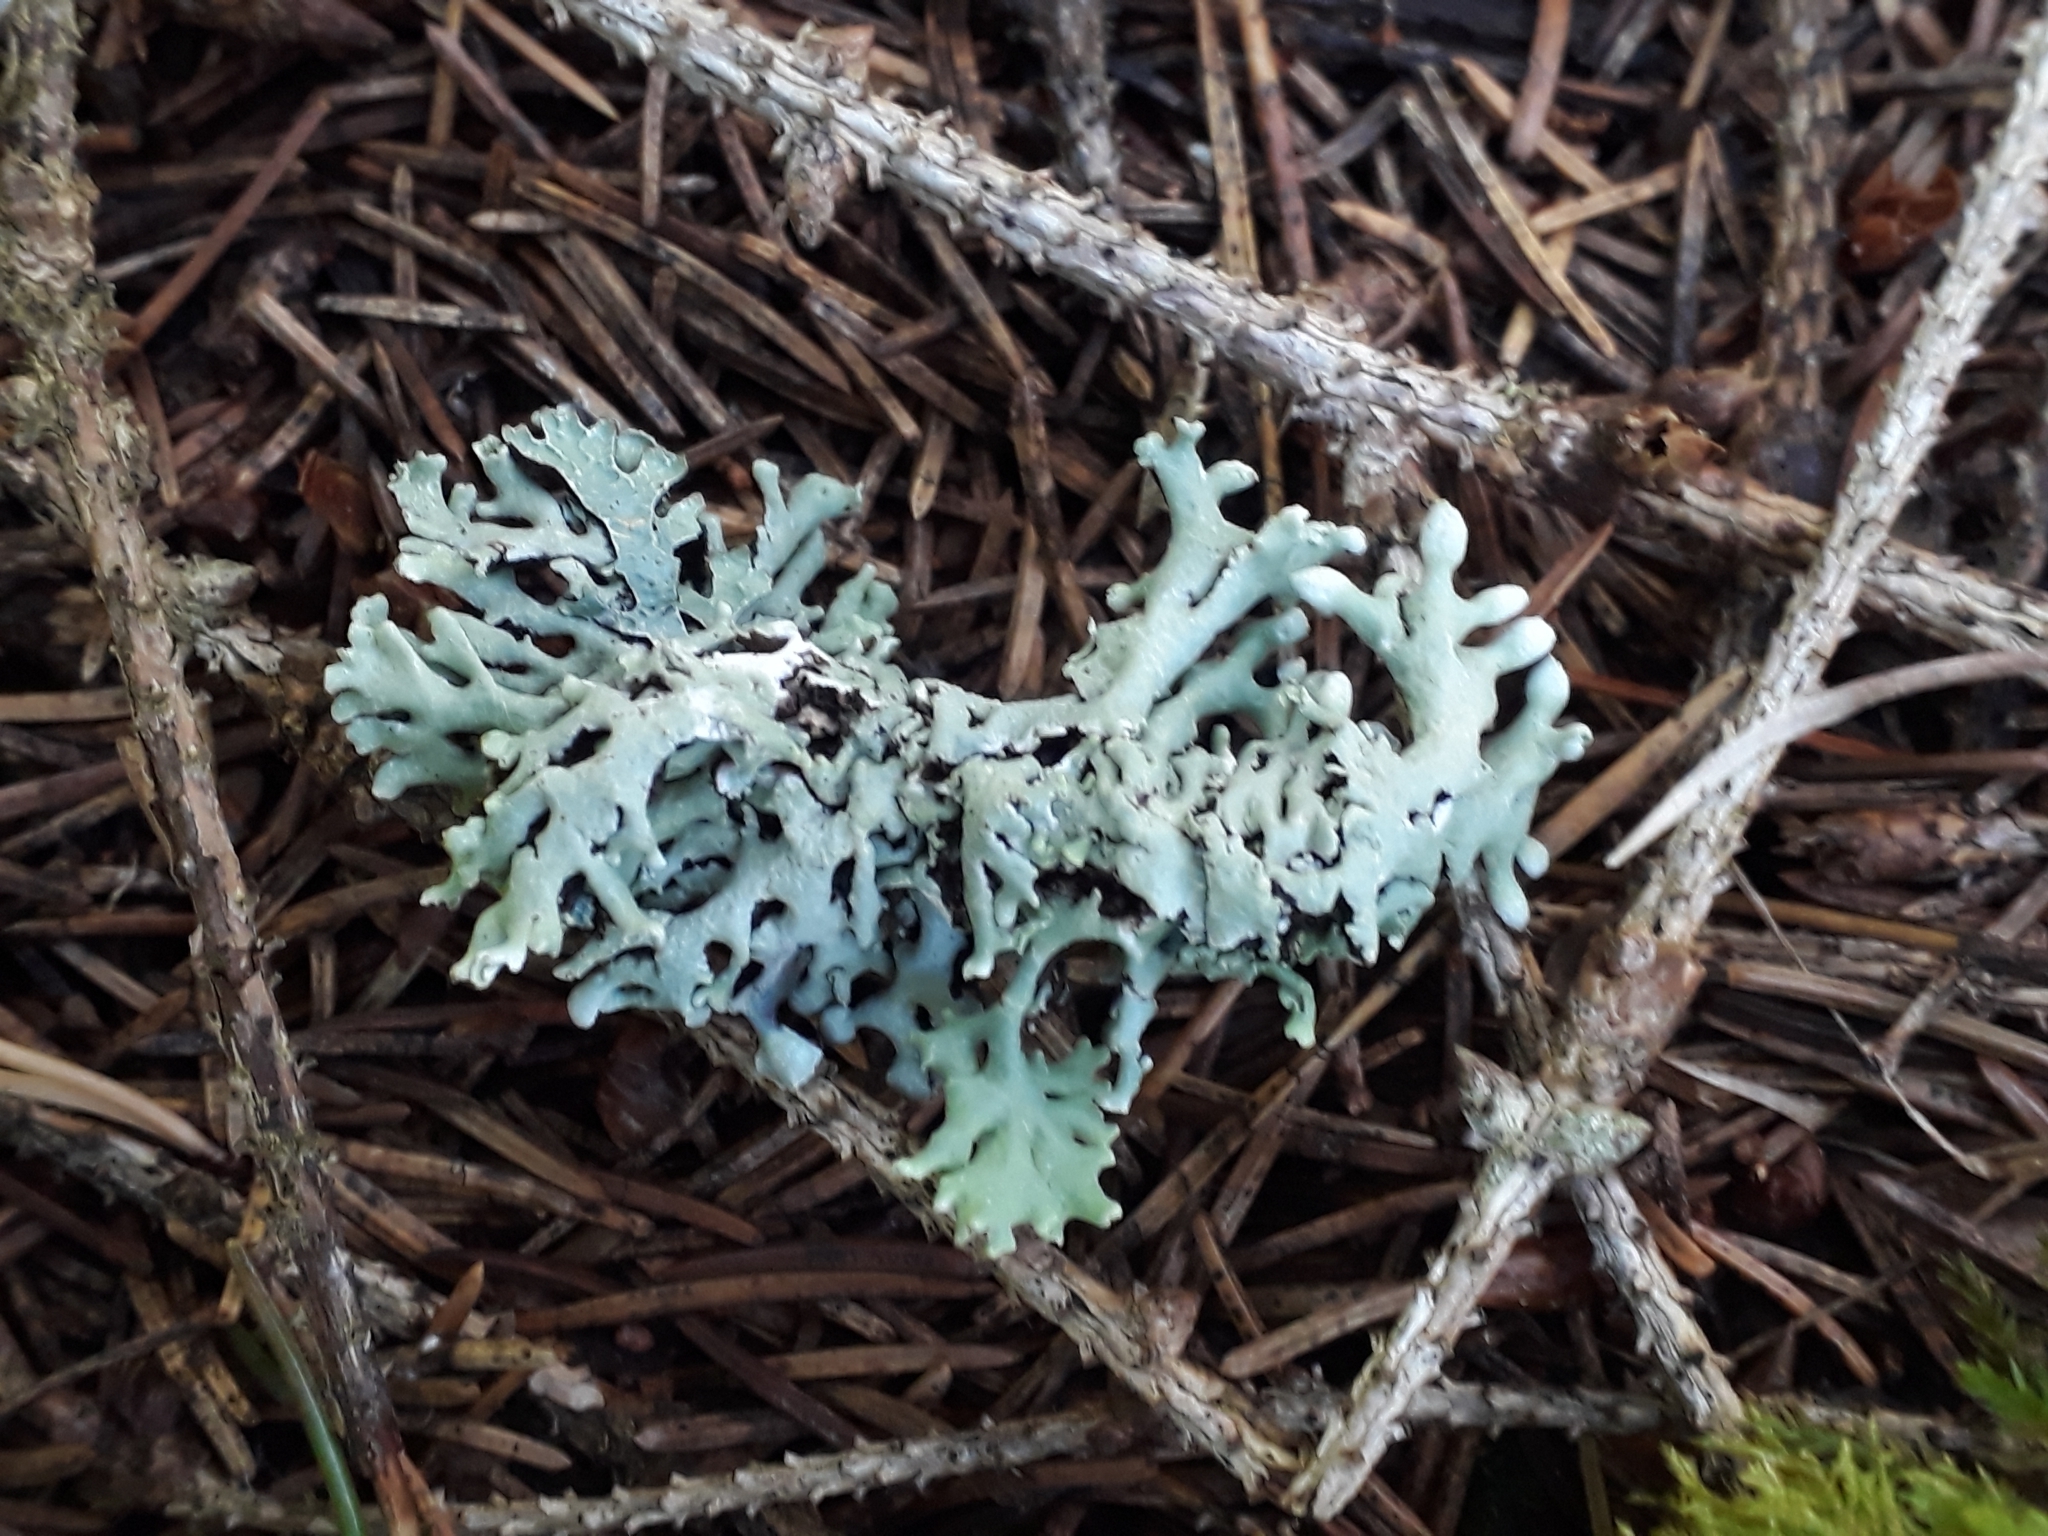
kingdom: Fungi
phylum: Ascomycota
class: Lecanoromycetes
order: Lecanorales
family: Parmeliaceae
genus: Hypogymnia
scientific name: Hypogymnia physodes
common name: Dark crottle
